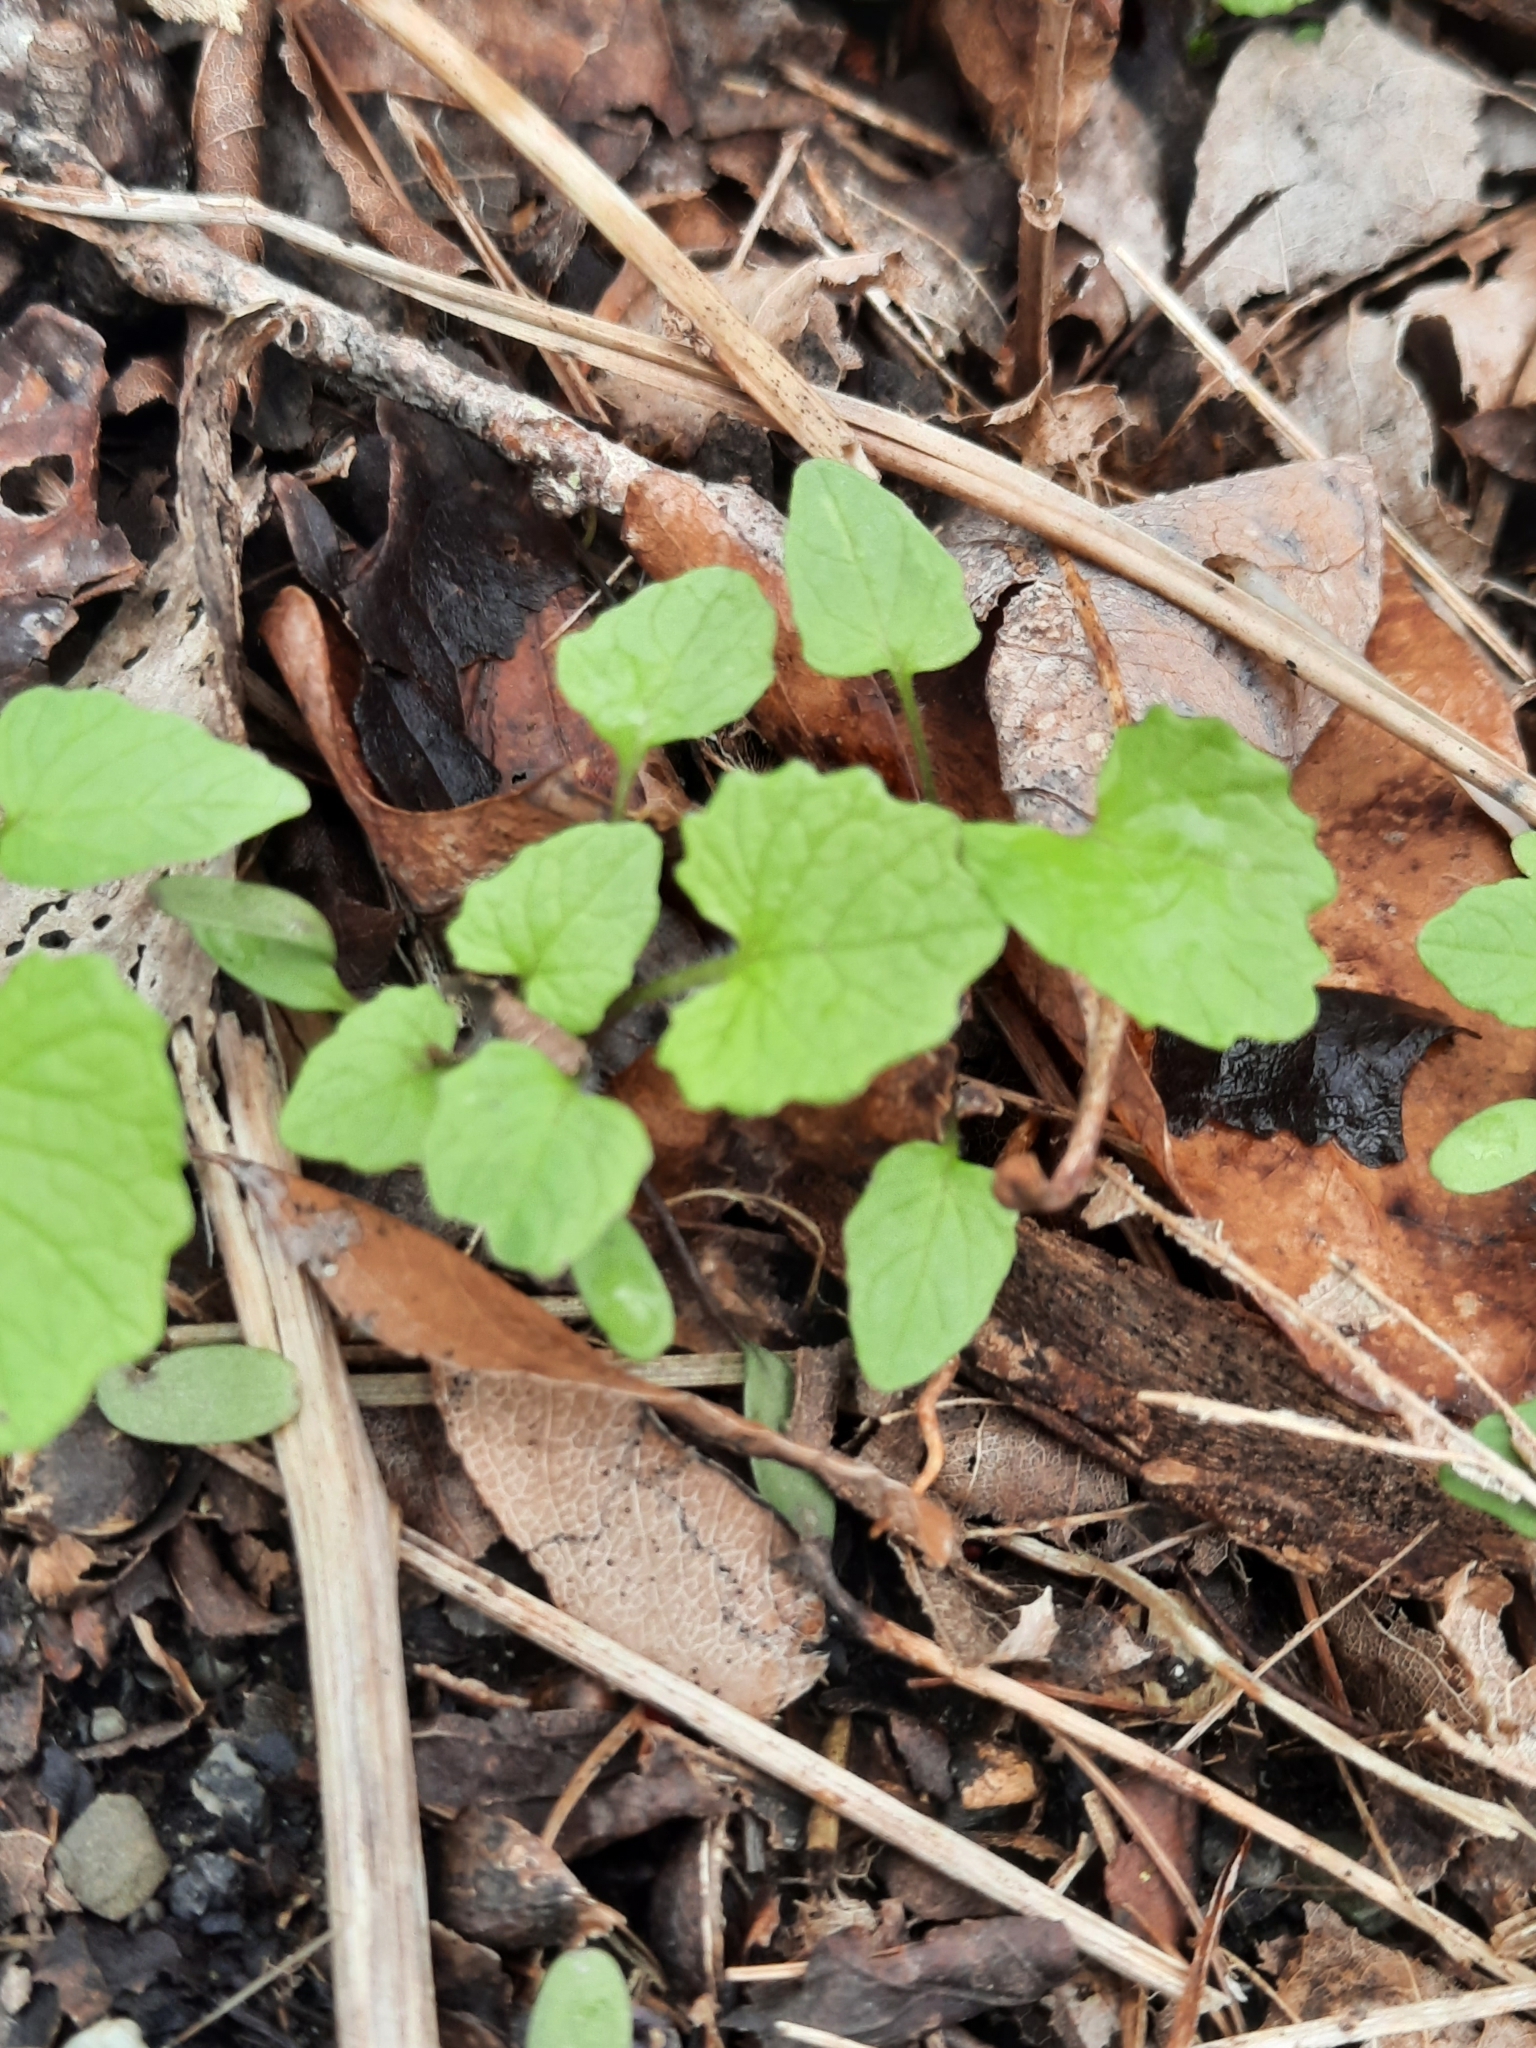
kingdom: Plantae
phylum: Tracheophyta
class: Magnoliopsida
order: Rosales
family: Rosaceae
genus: Rosa
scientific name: Rosa multiflora
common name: Multiflora rose
